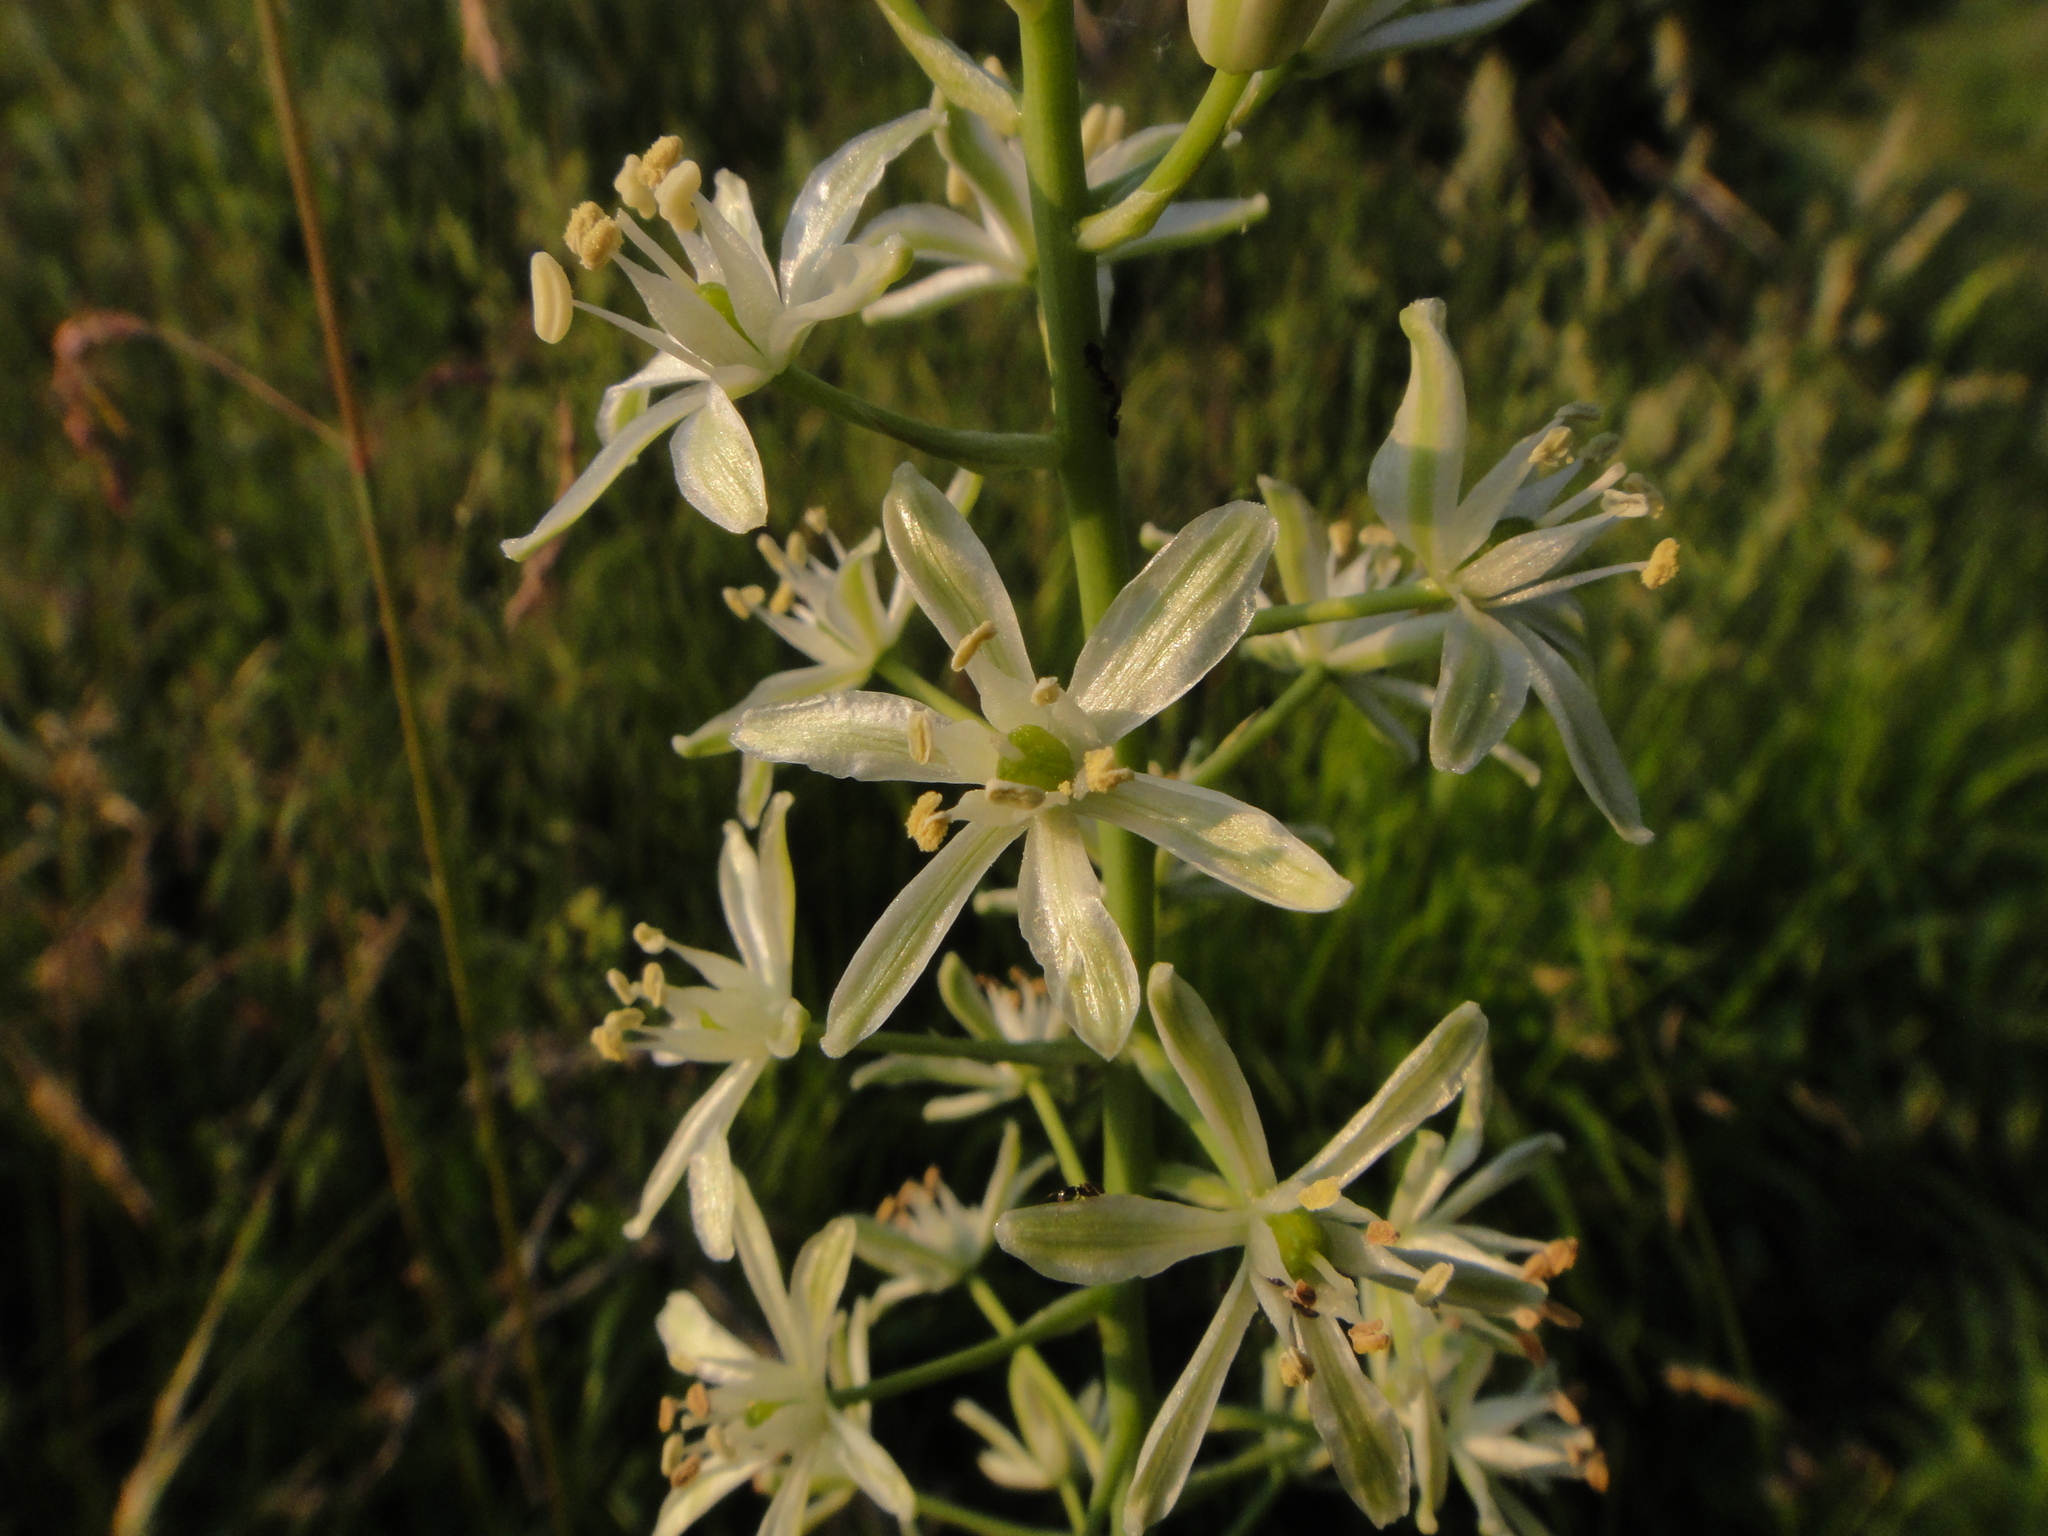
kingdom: Plantae
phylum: Tracheophyta
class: Liliopsida
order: Asparagales
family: Asparagaceae
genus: Ornithogalum
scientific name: Ornithogalum sphaerocarpum
